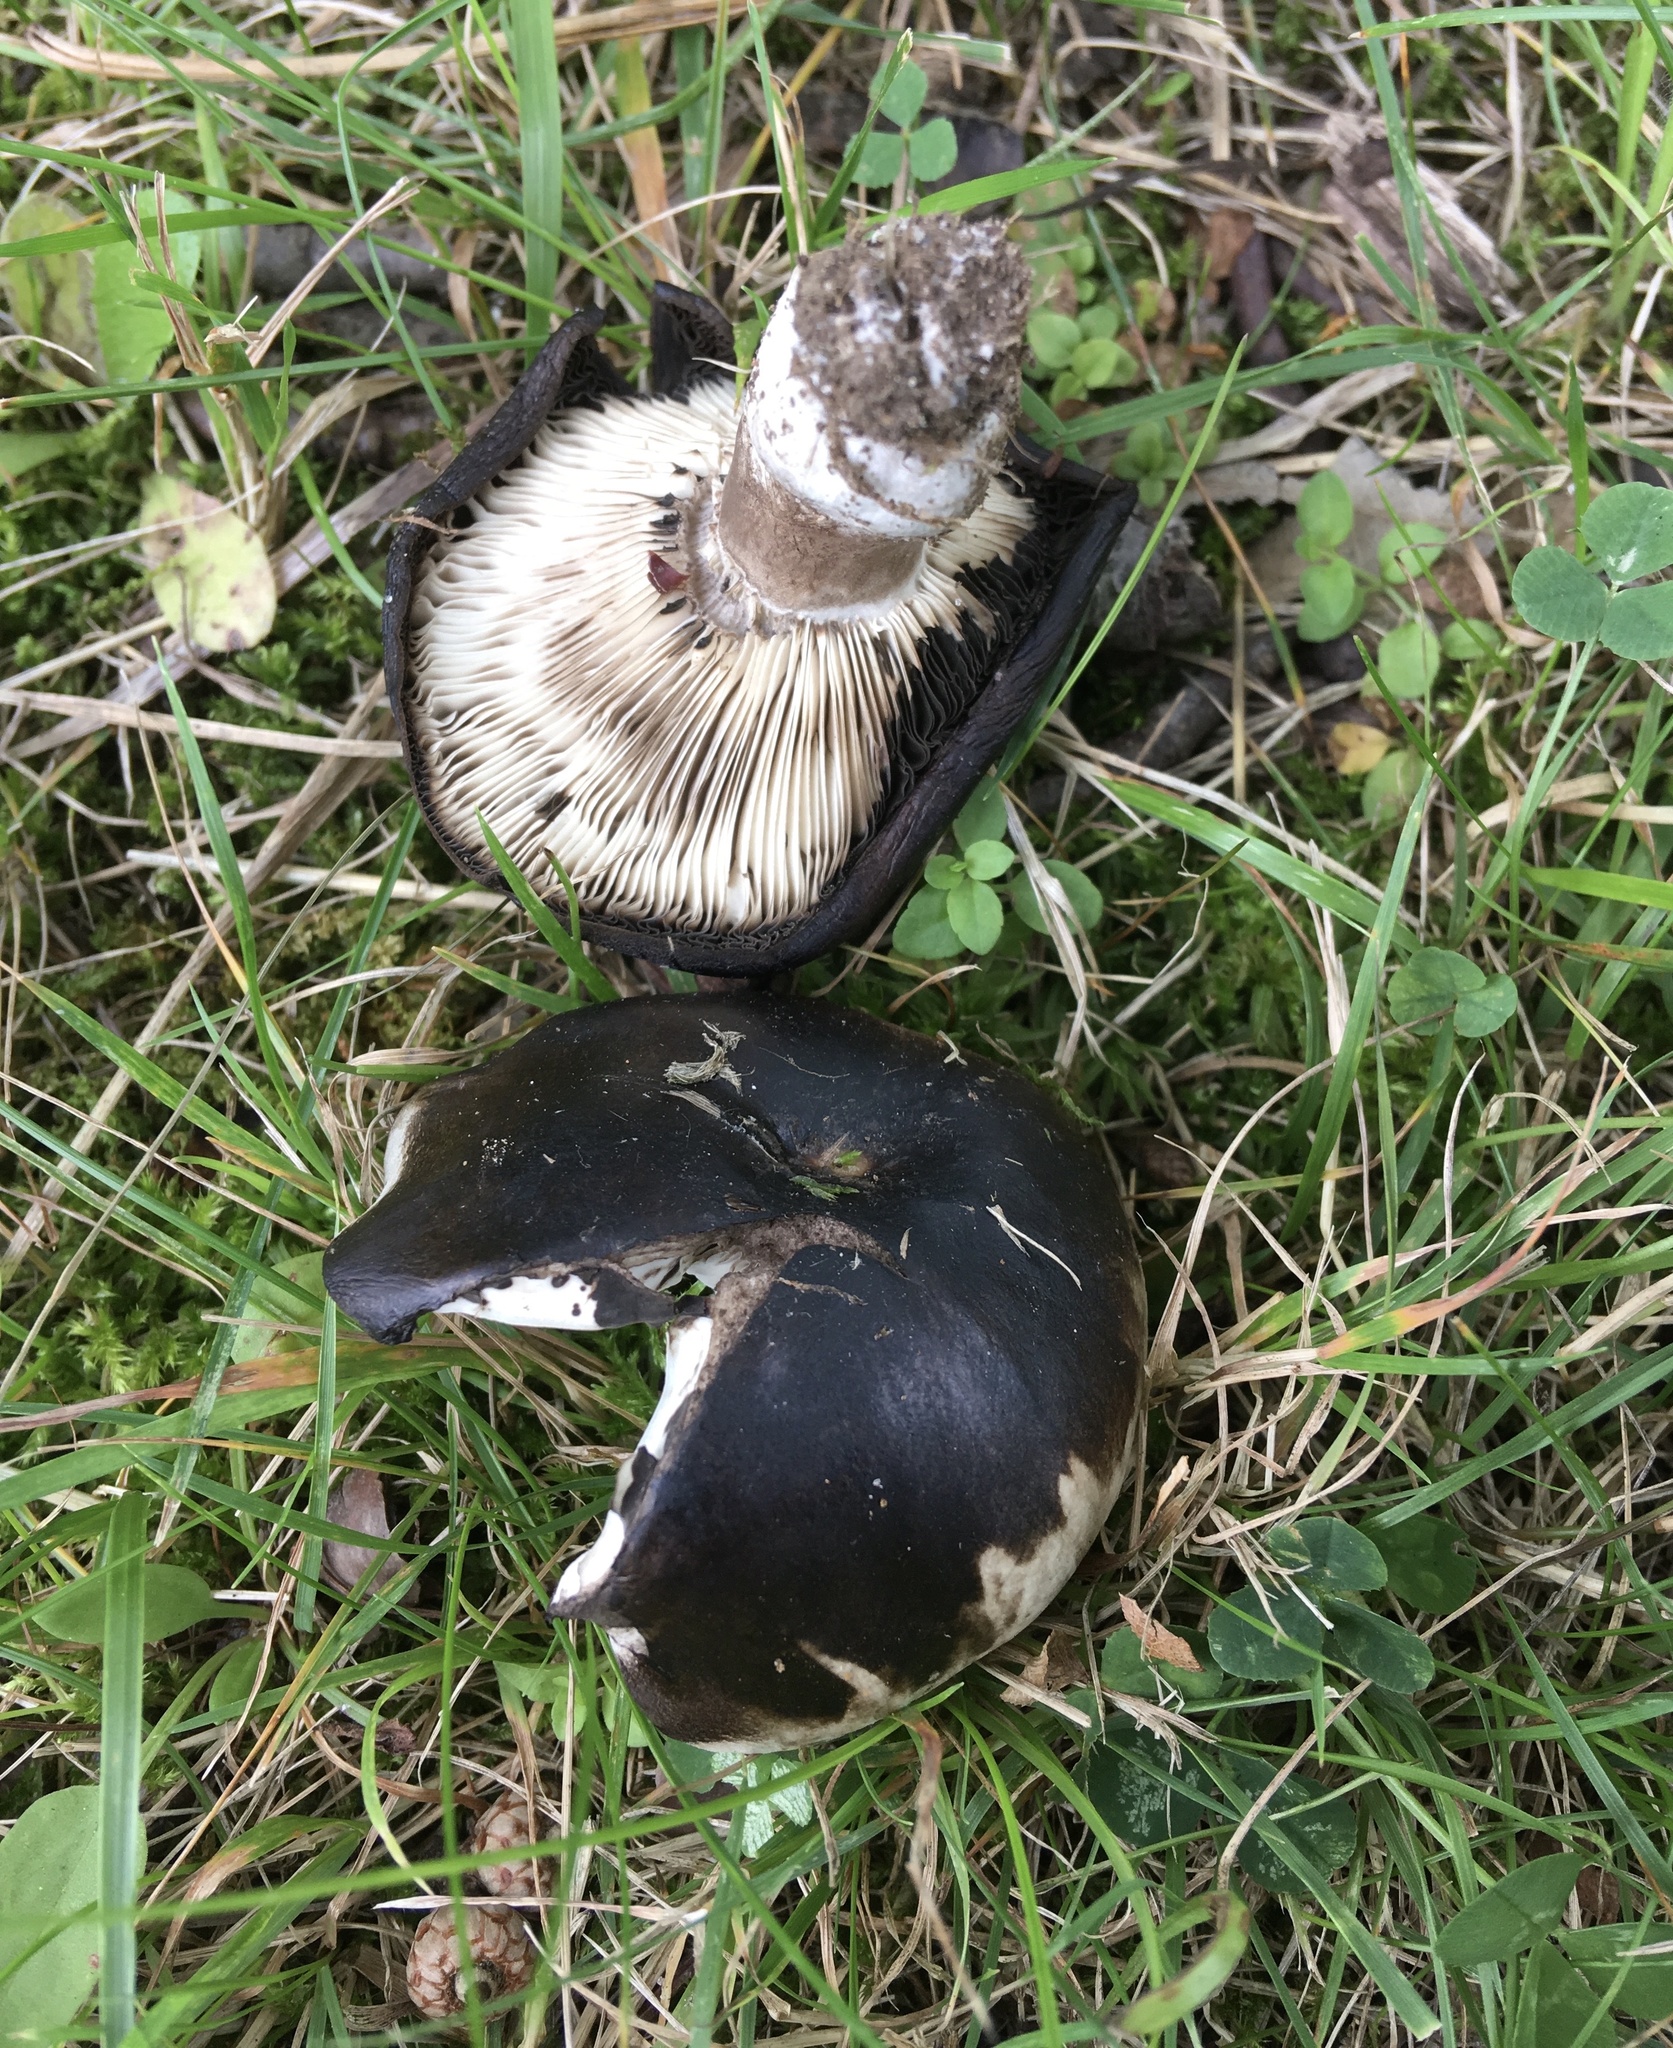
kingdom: Fungi
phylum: Basidiomycota
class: Agaricomycetes
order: Russulales
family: Russulaceae
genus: Russula
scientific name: Russula albonigra
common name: Menthol brittlegill
